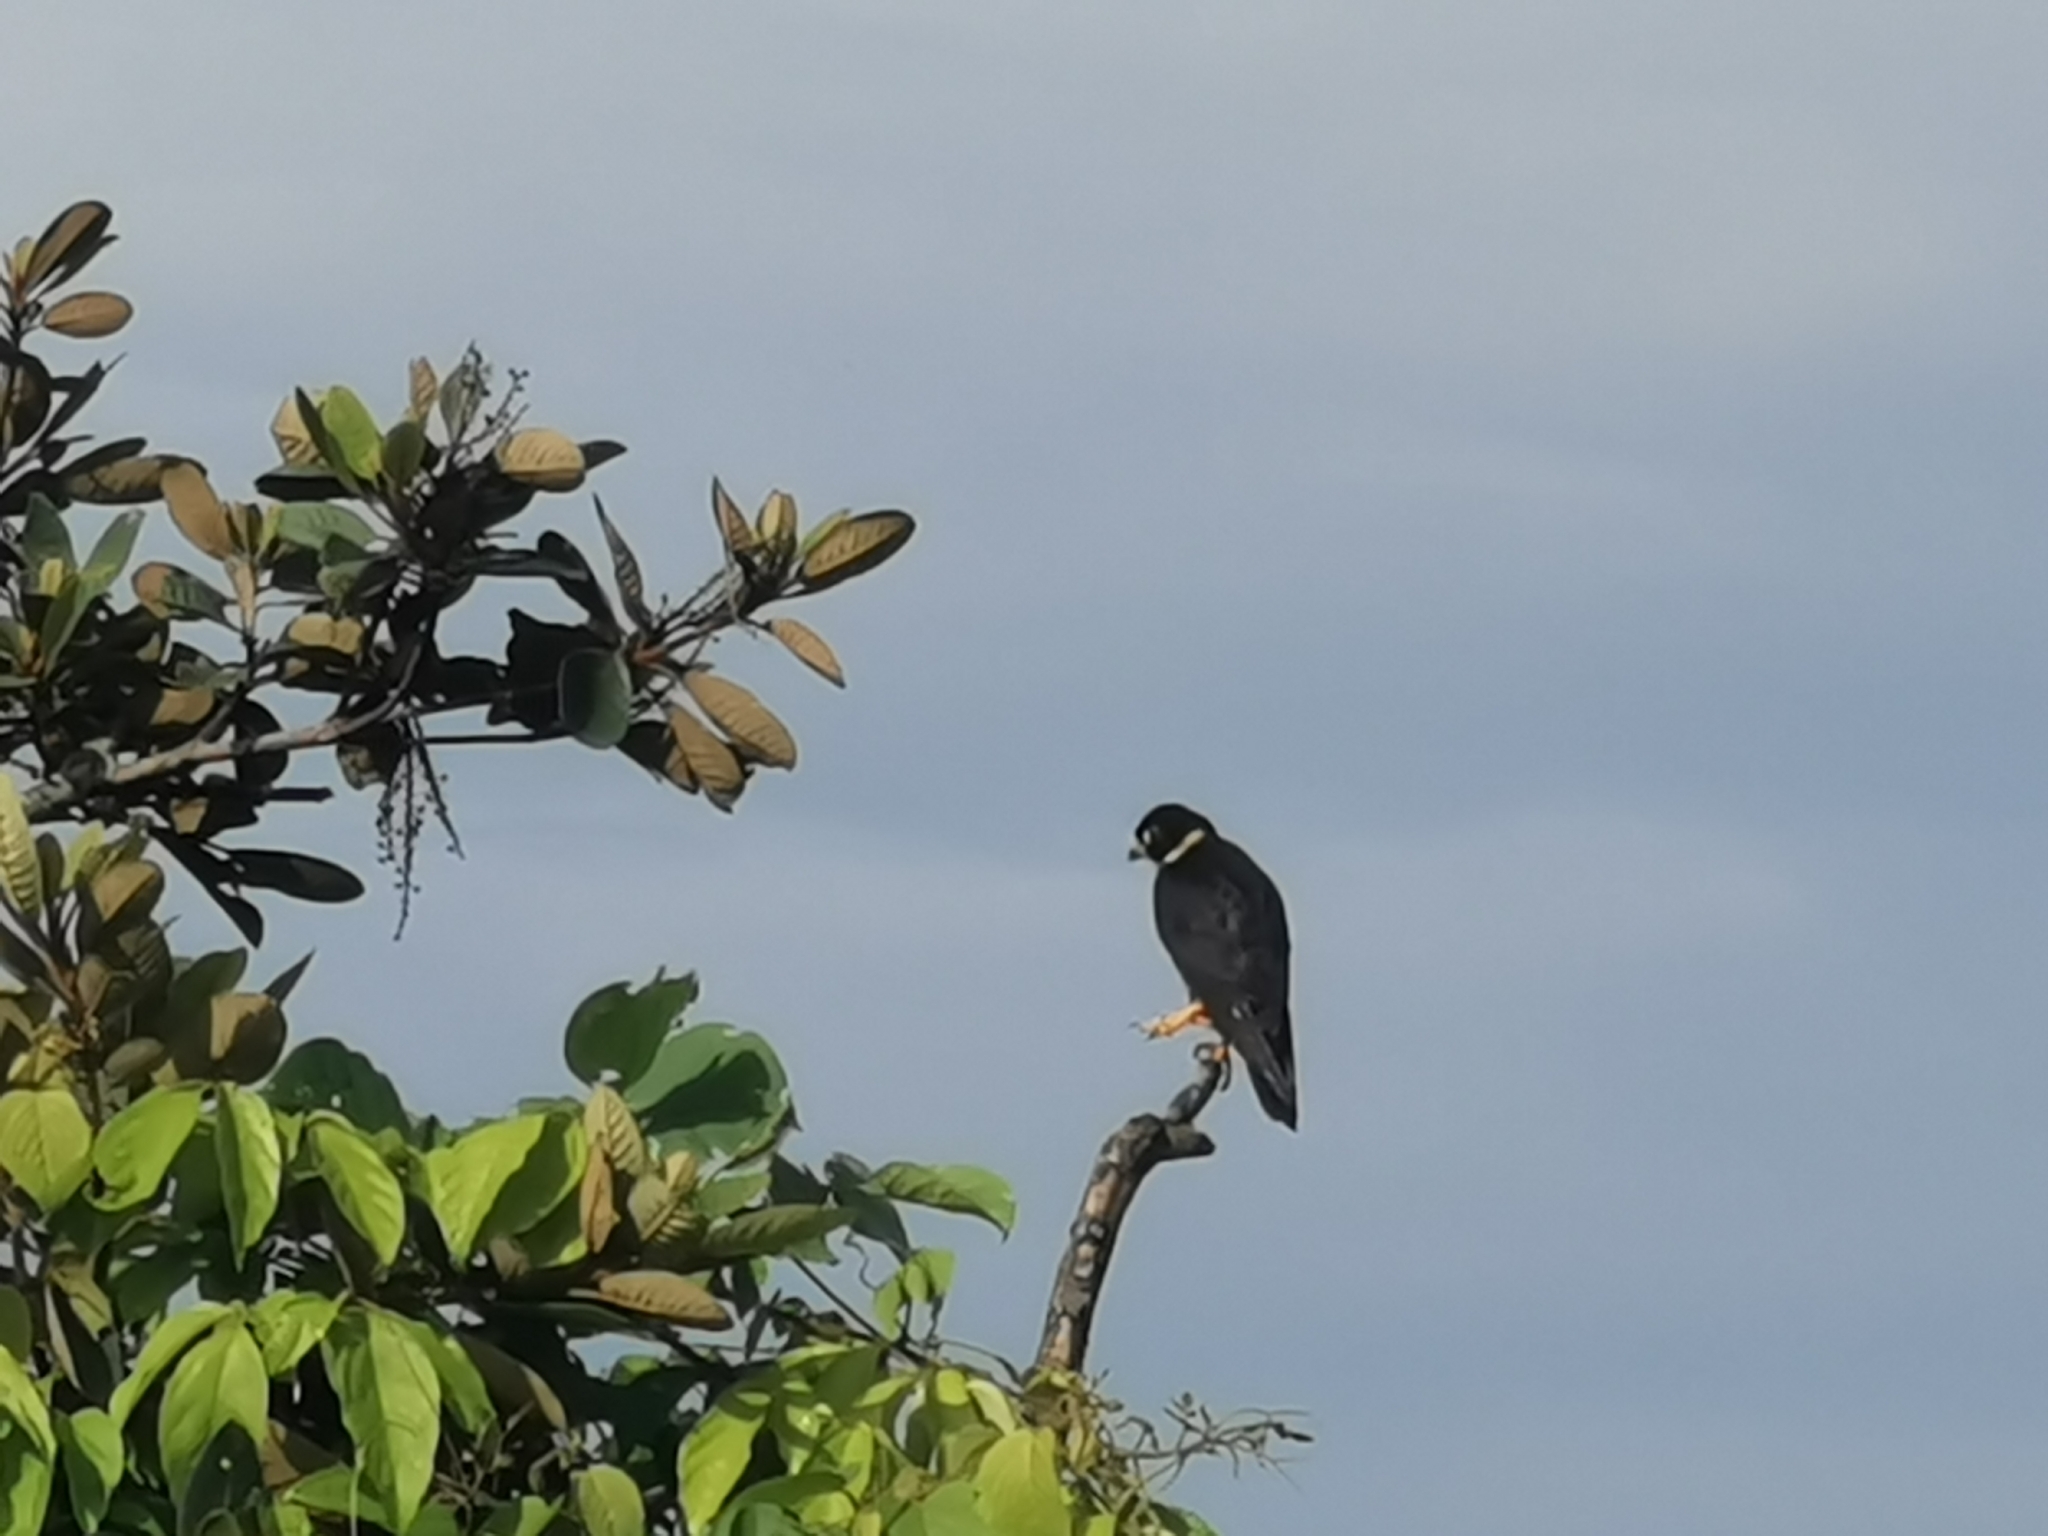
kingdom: Animalia
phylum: Chordata
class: Aves
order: Falconiformes
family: Falconidae
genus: Falco
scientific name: Falco rufigularis
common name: Bat falcon
